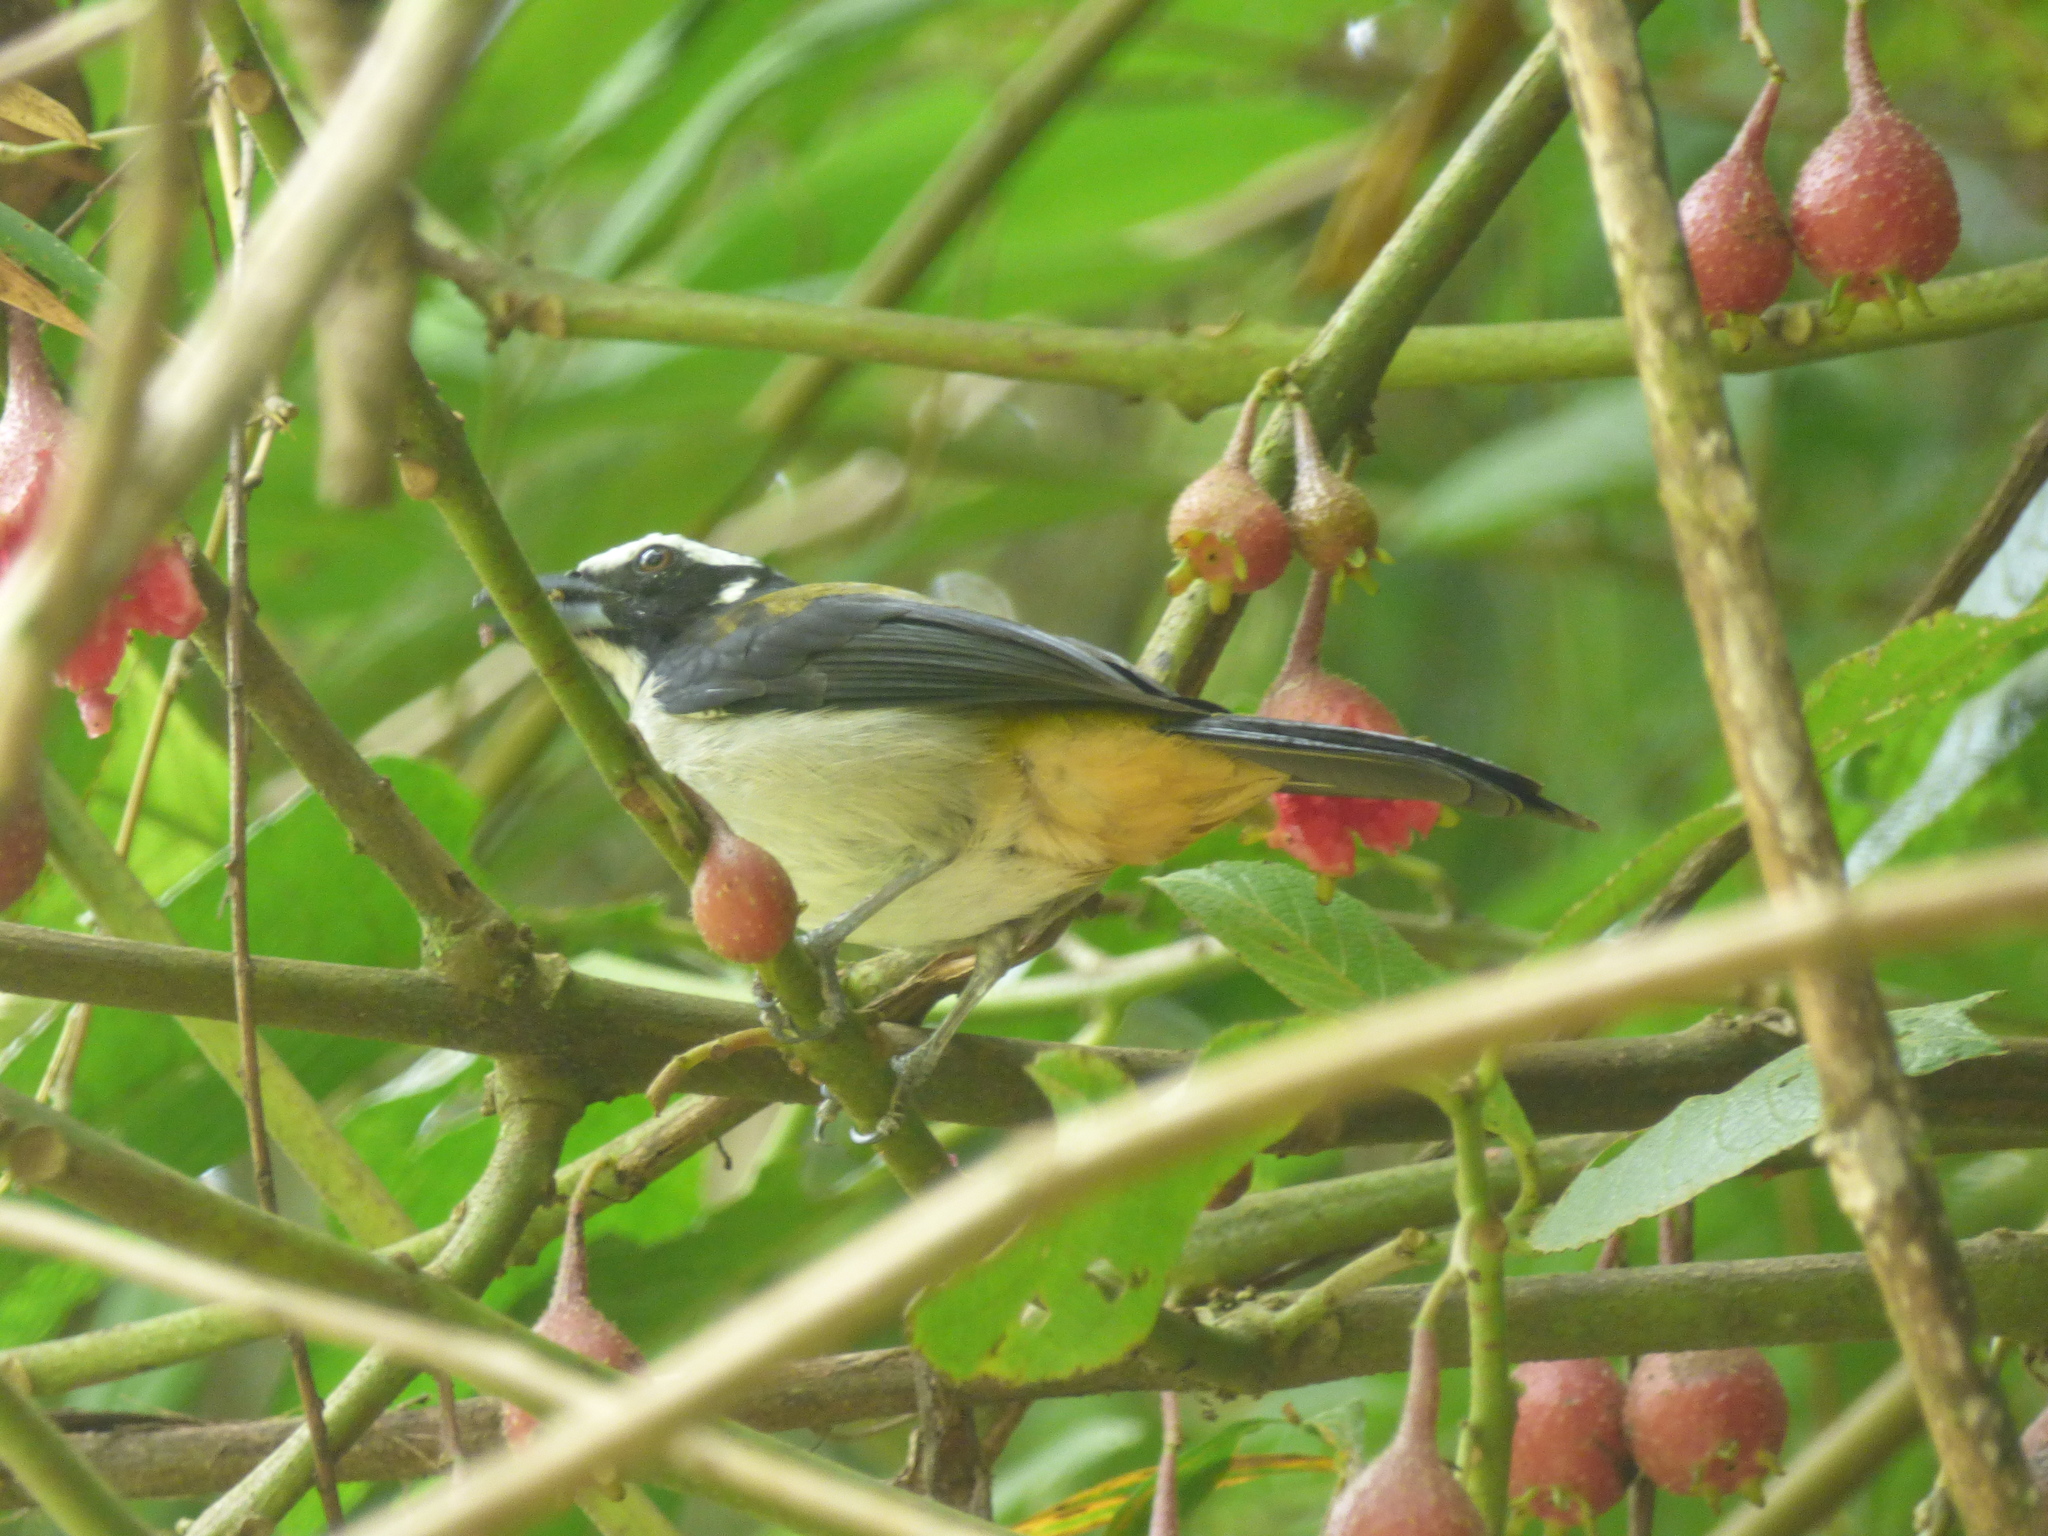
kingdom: Animalia
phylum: Chordata
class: Aves
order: Passeriformes
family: Thraupidae
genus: Saltator
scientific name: Saltator atripennis
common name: Black-winged saltator
